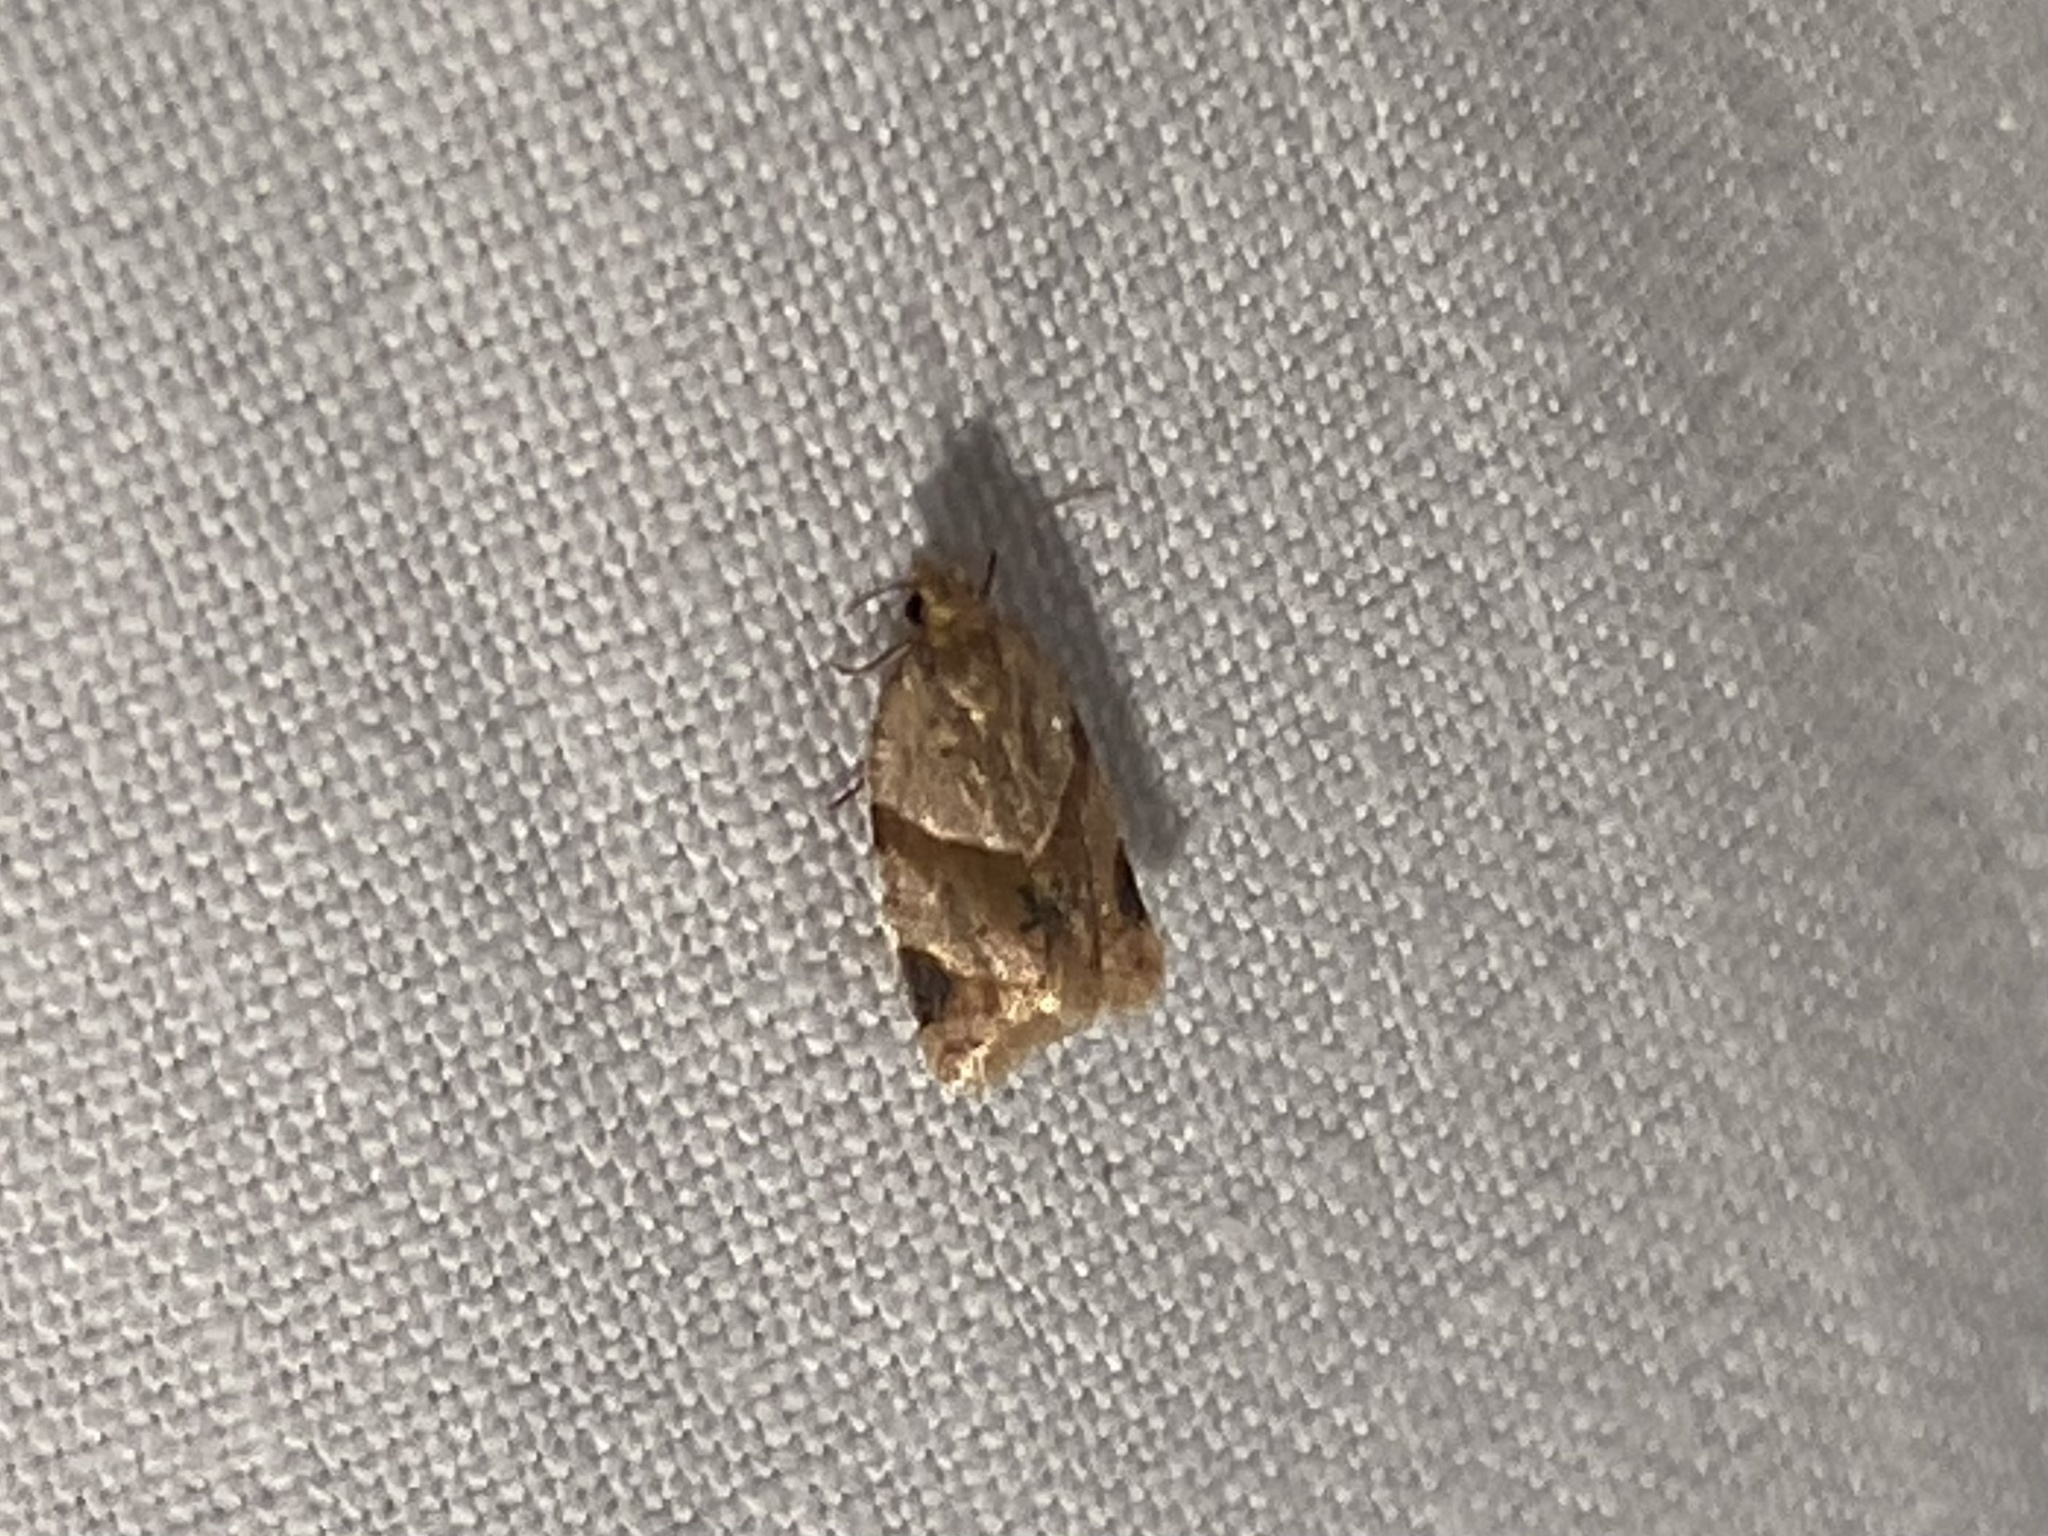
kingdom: Animalia
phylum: Arthropoda
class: Insecta
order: Lepidoptera
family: Tortricidae
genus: Clepsis
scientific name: Clepsis peritana
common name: Garden tortrix
